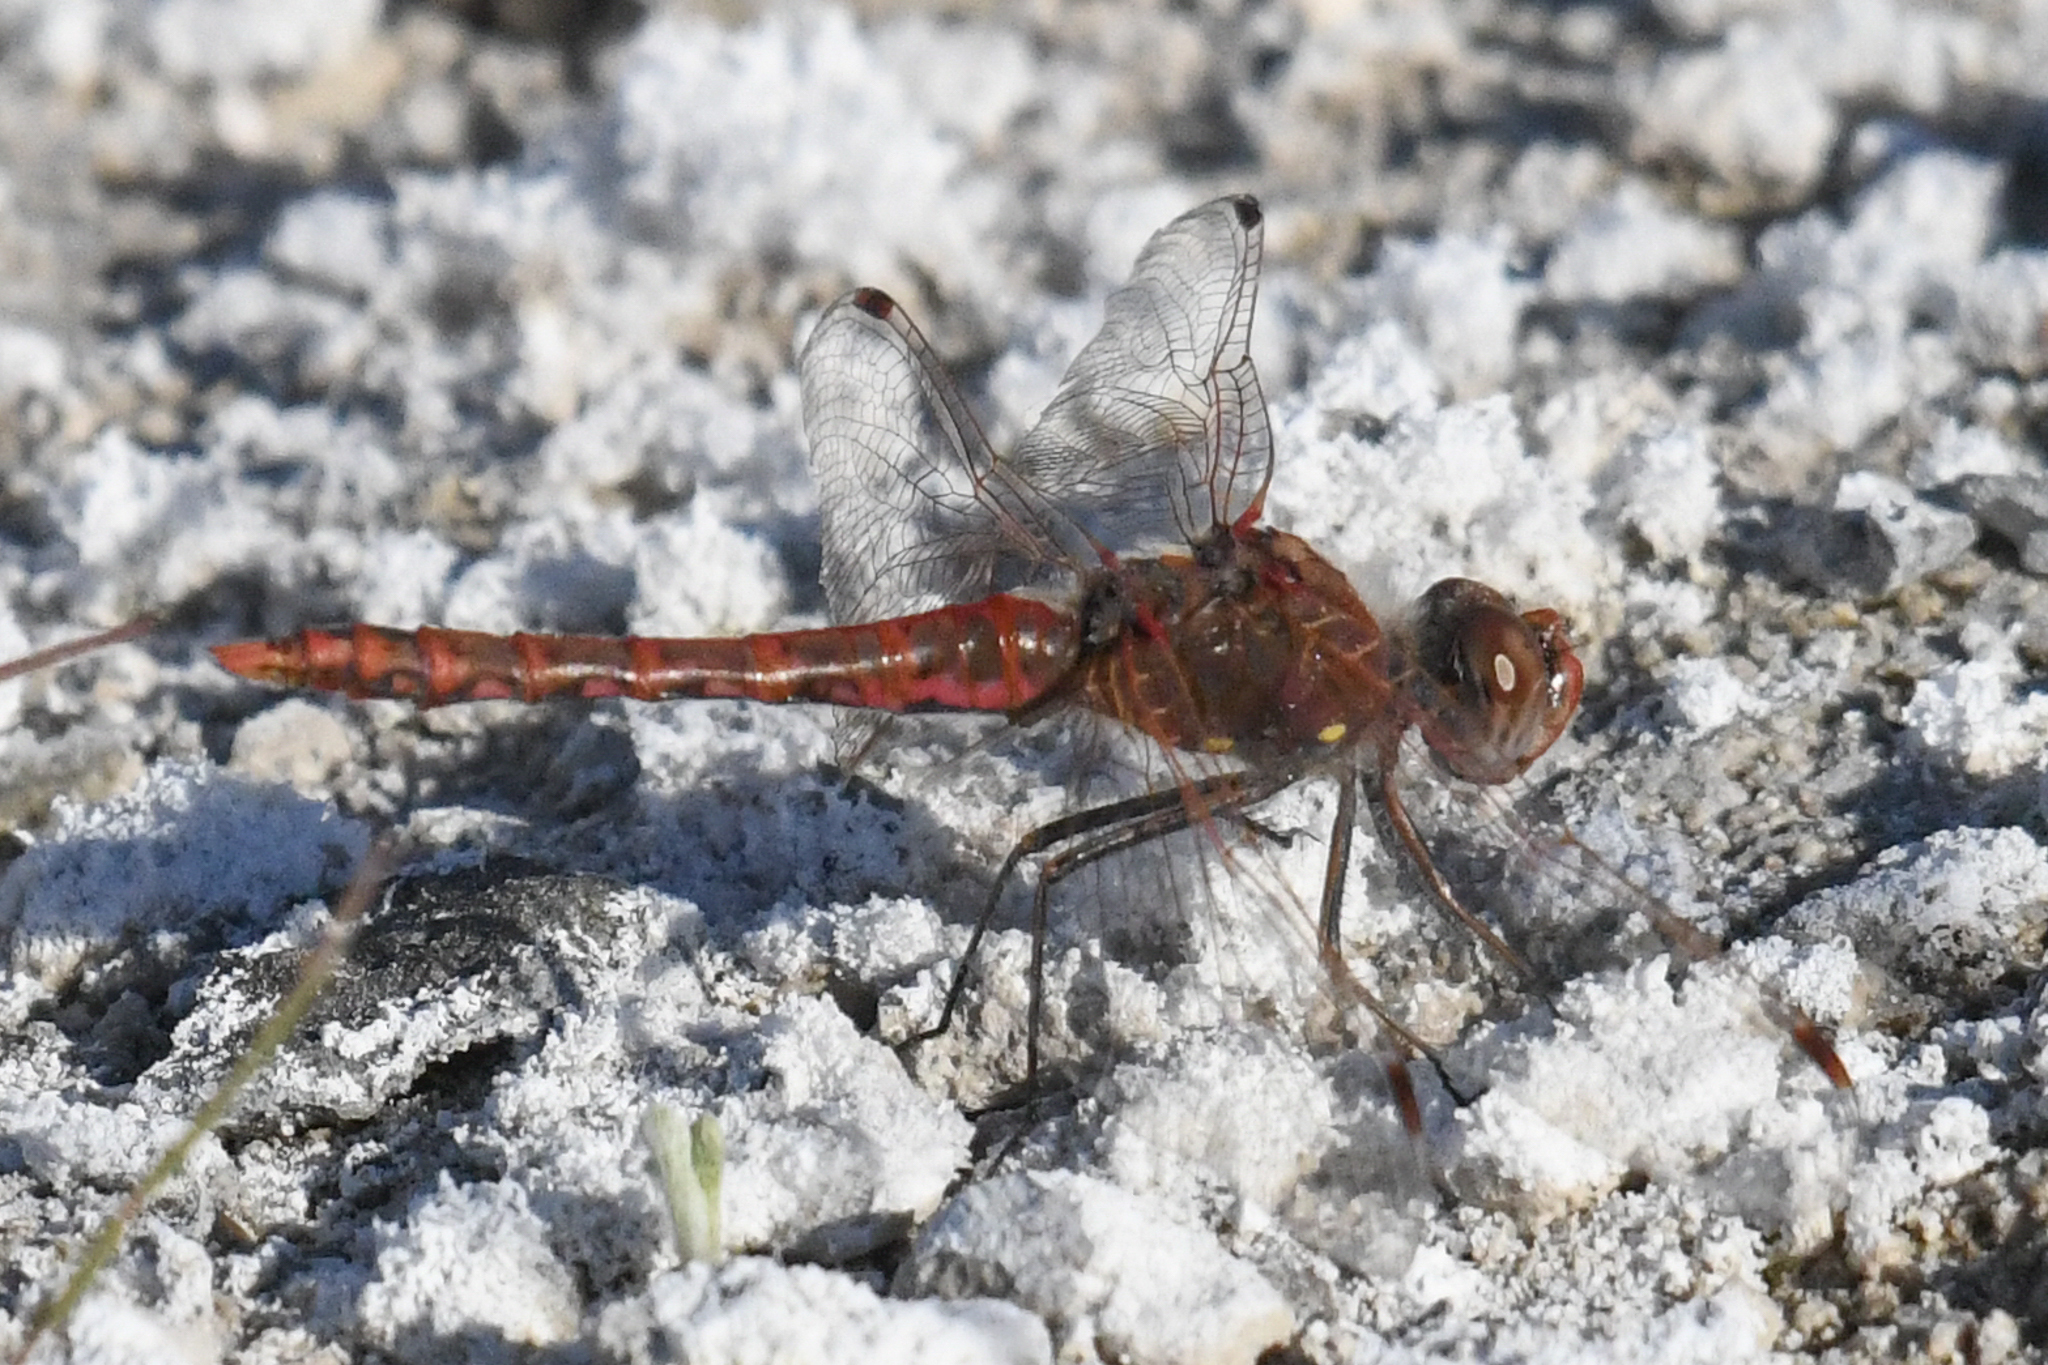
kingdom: Animalia
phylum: Arthropoda
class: Insecta
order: Odonata
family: Libellulidae
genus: Sympetrum
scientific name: Sympetrum corruptum
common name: Variegated meadowhawk
